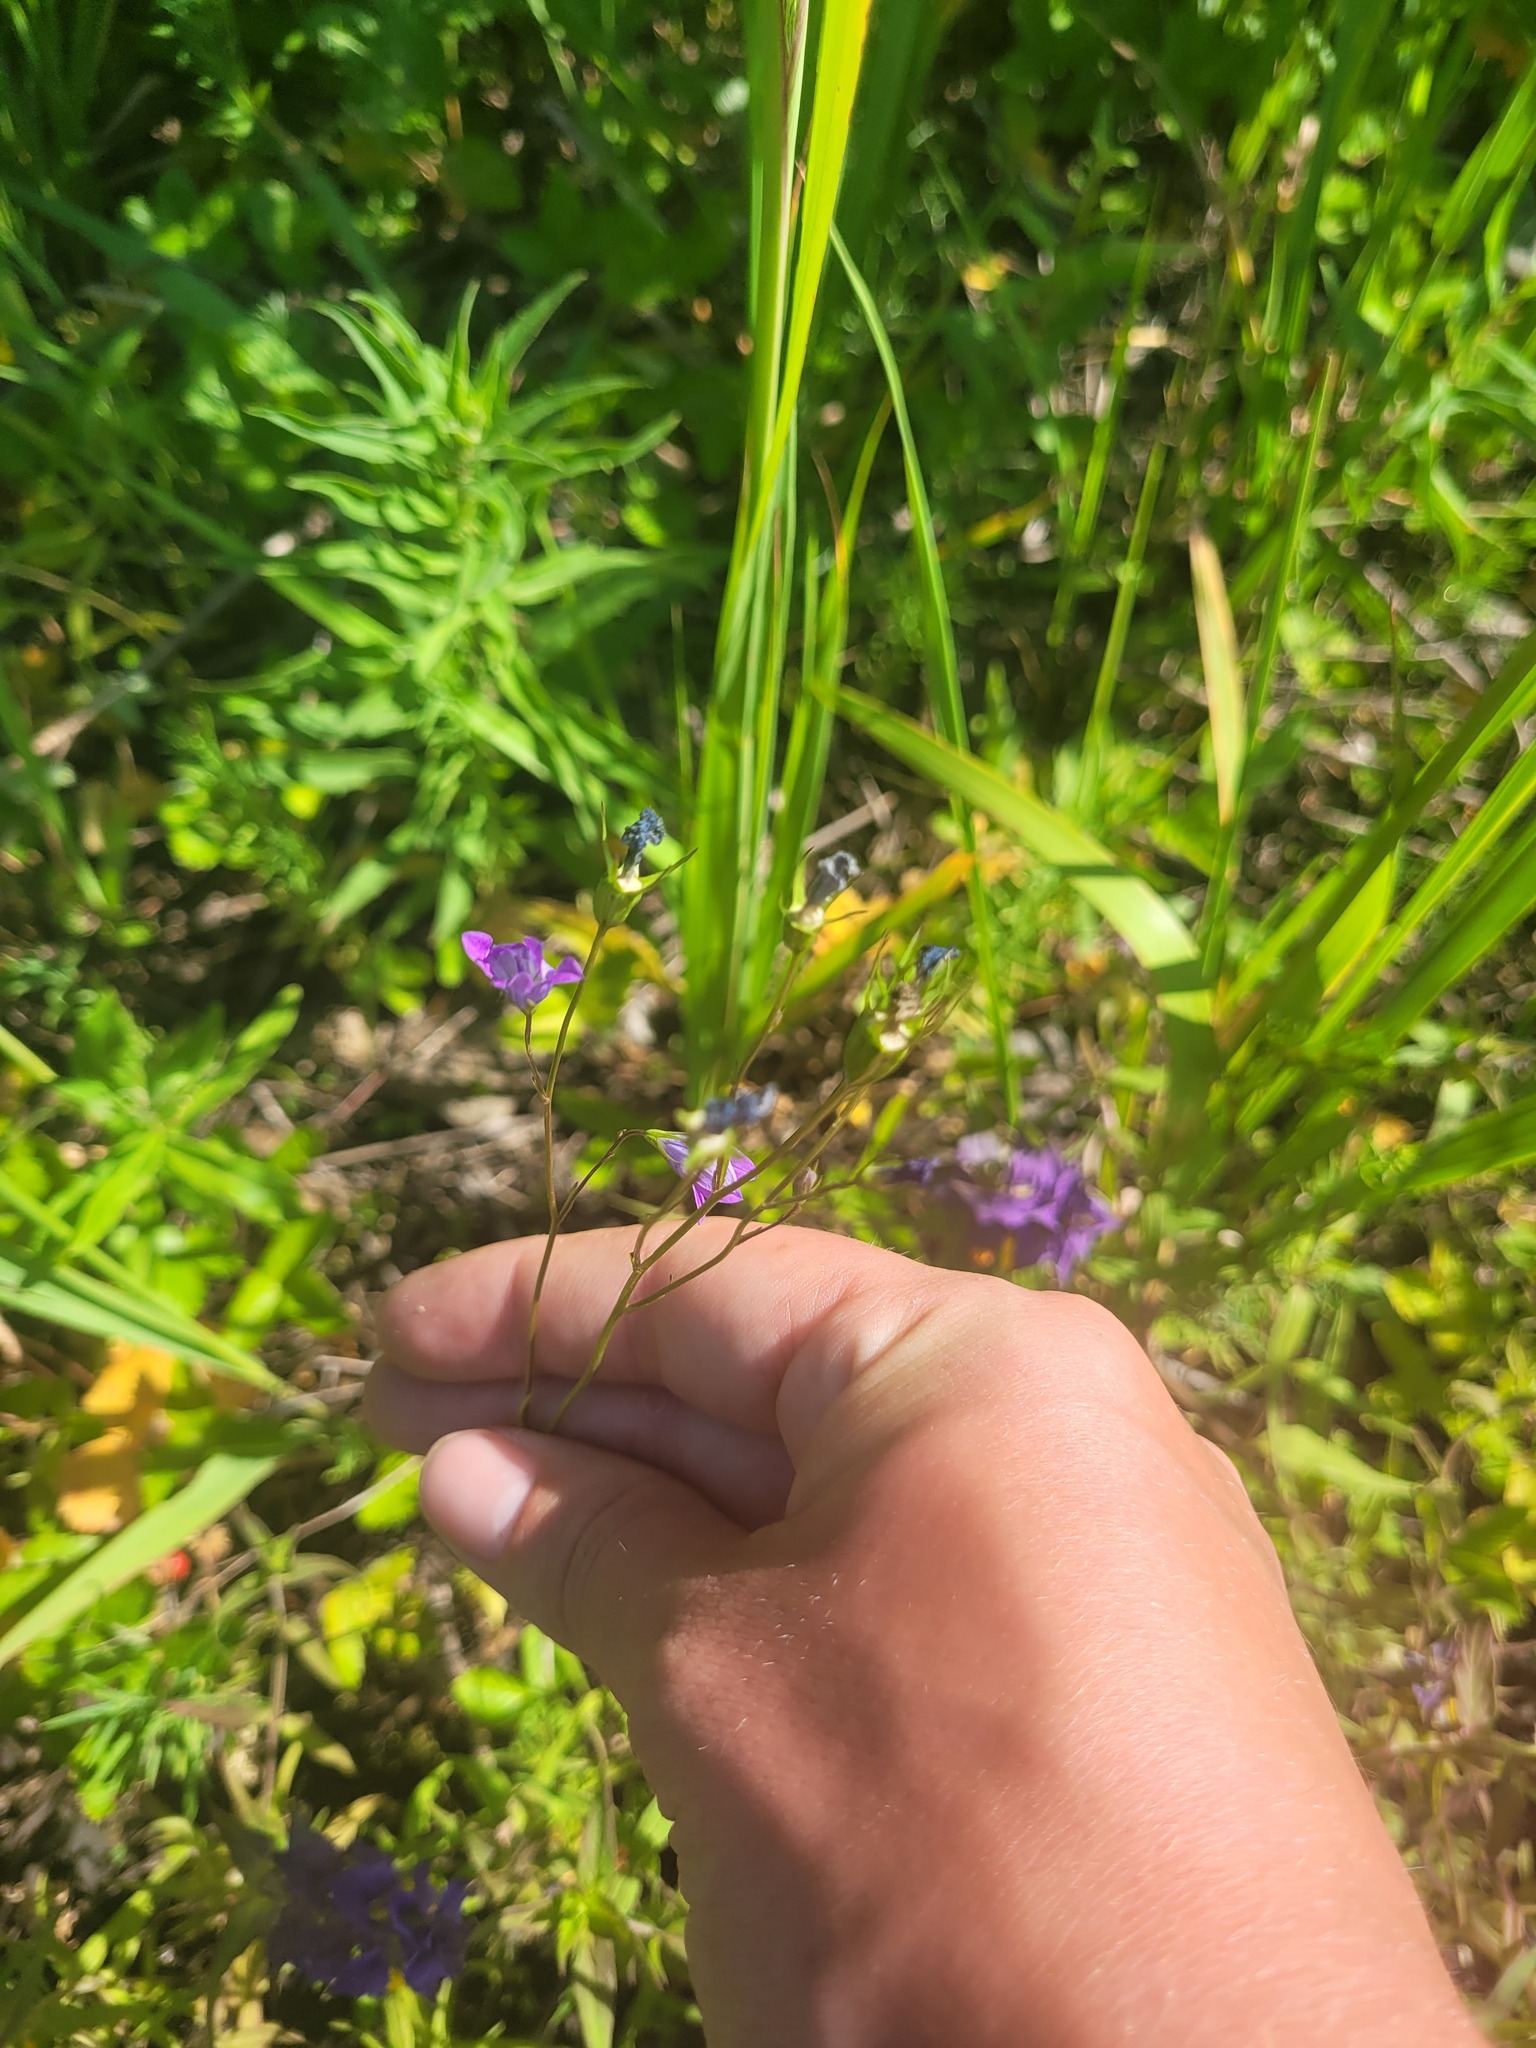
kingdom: Plantae
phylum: Tracheophyta
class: Magnoliopsida
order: Asterales
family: Campanulaceae
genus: Campanula
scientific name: Campanula patula
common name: Spreading bellflower
